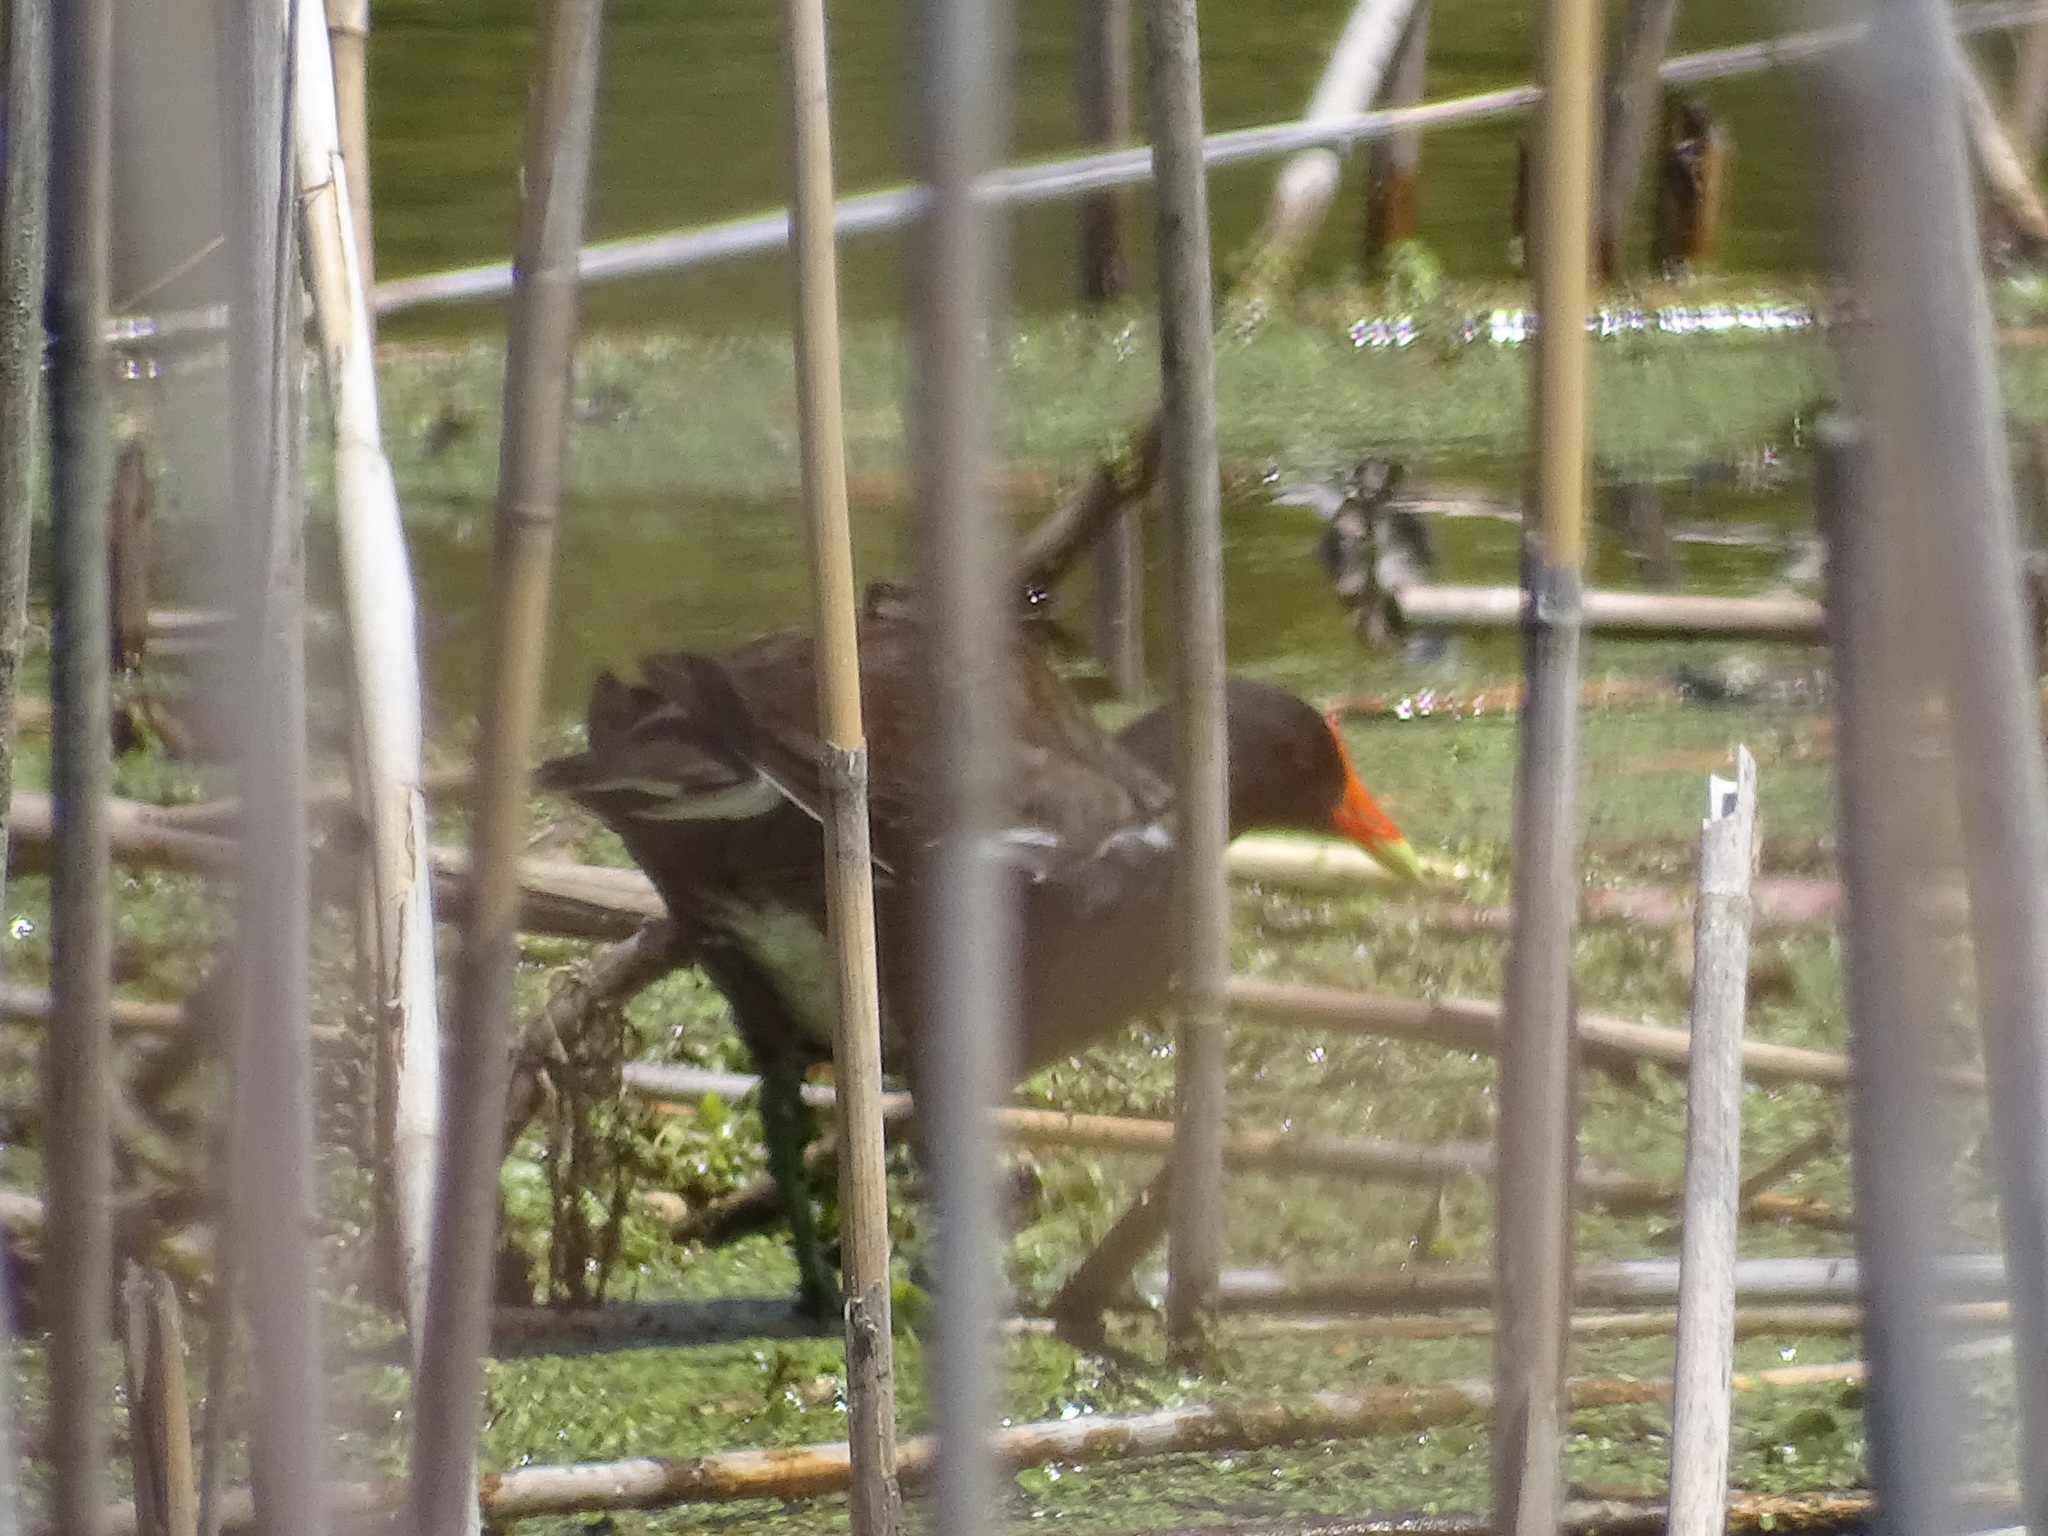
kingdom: Animalia
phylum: Chordata
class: Aves
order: Gruiformes
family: Rallidae
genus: Gallinula
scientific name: Gallinula chloropus
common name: Common moorhen
